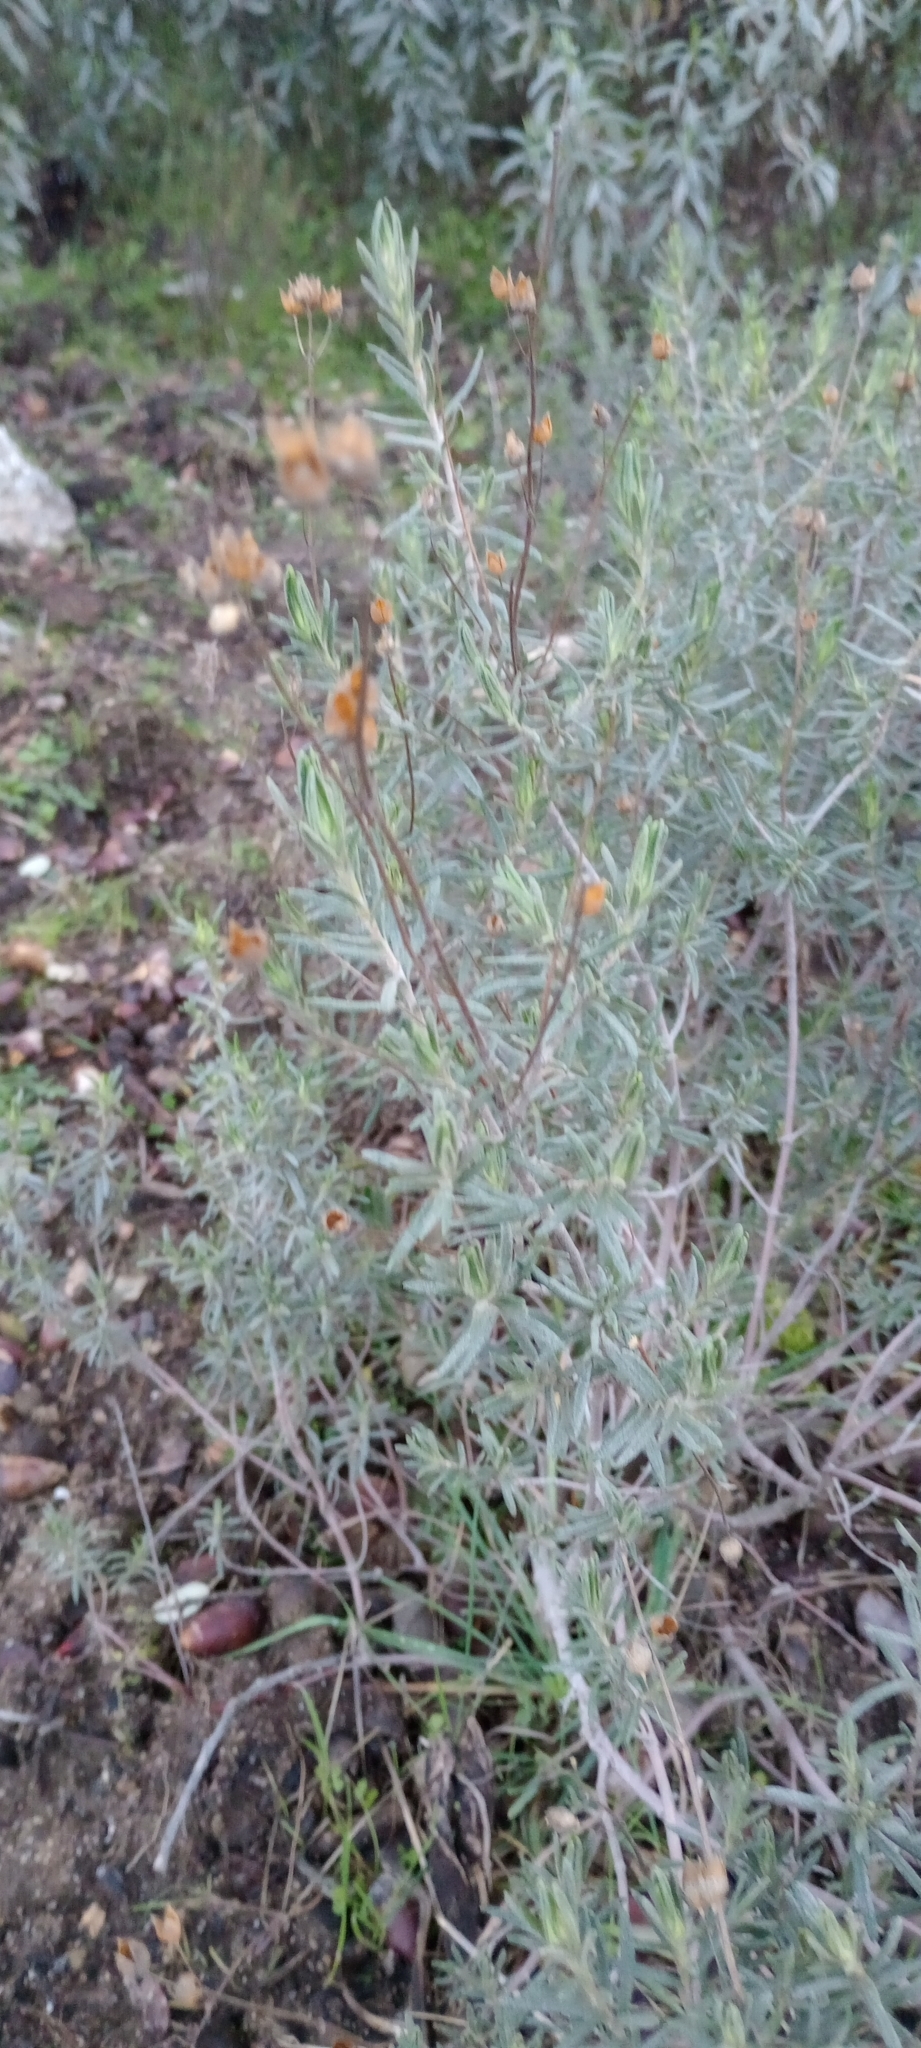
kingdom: Plantae
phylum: Tracheophyta
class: Magnoliopsida
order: Malvales
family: Cistaceae
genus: Halimium
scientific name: Halimium umbellatum
